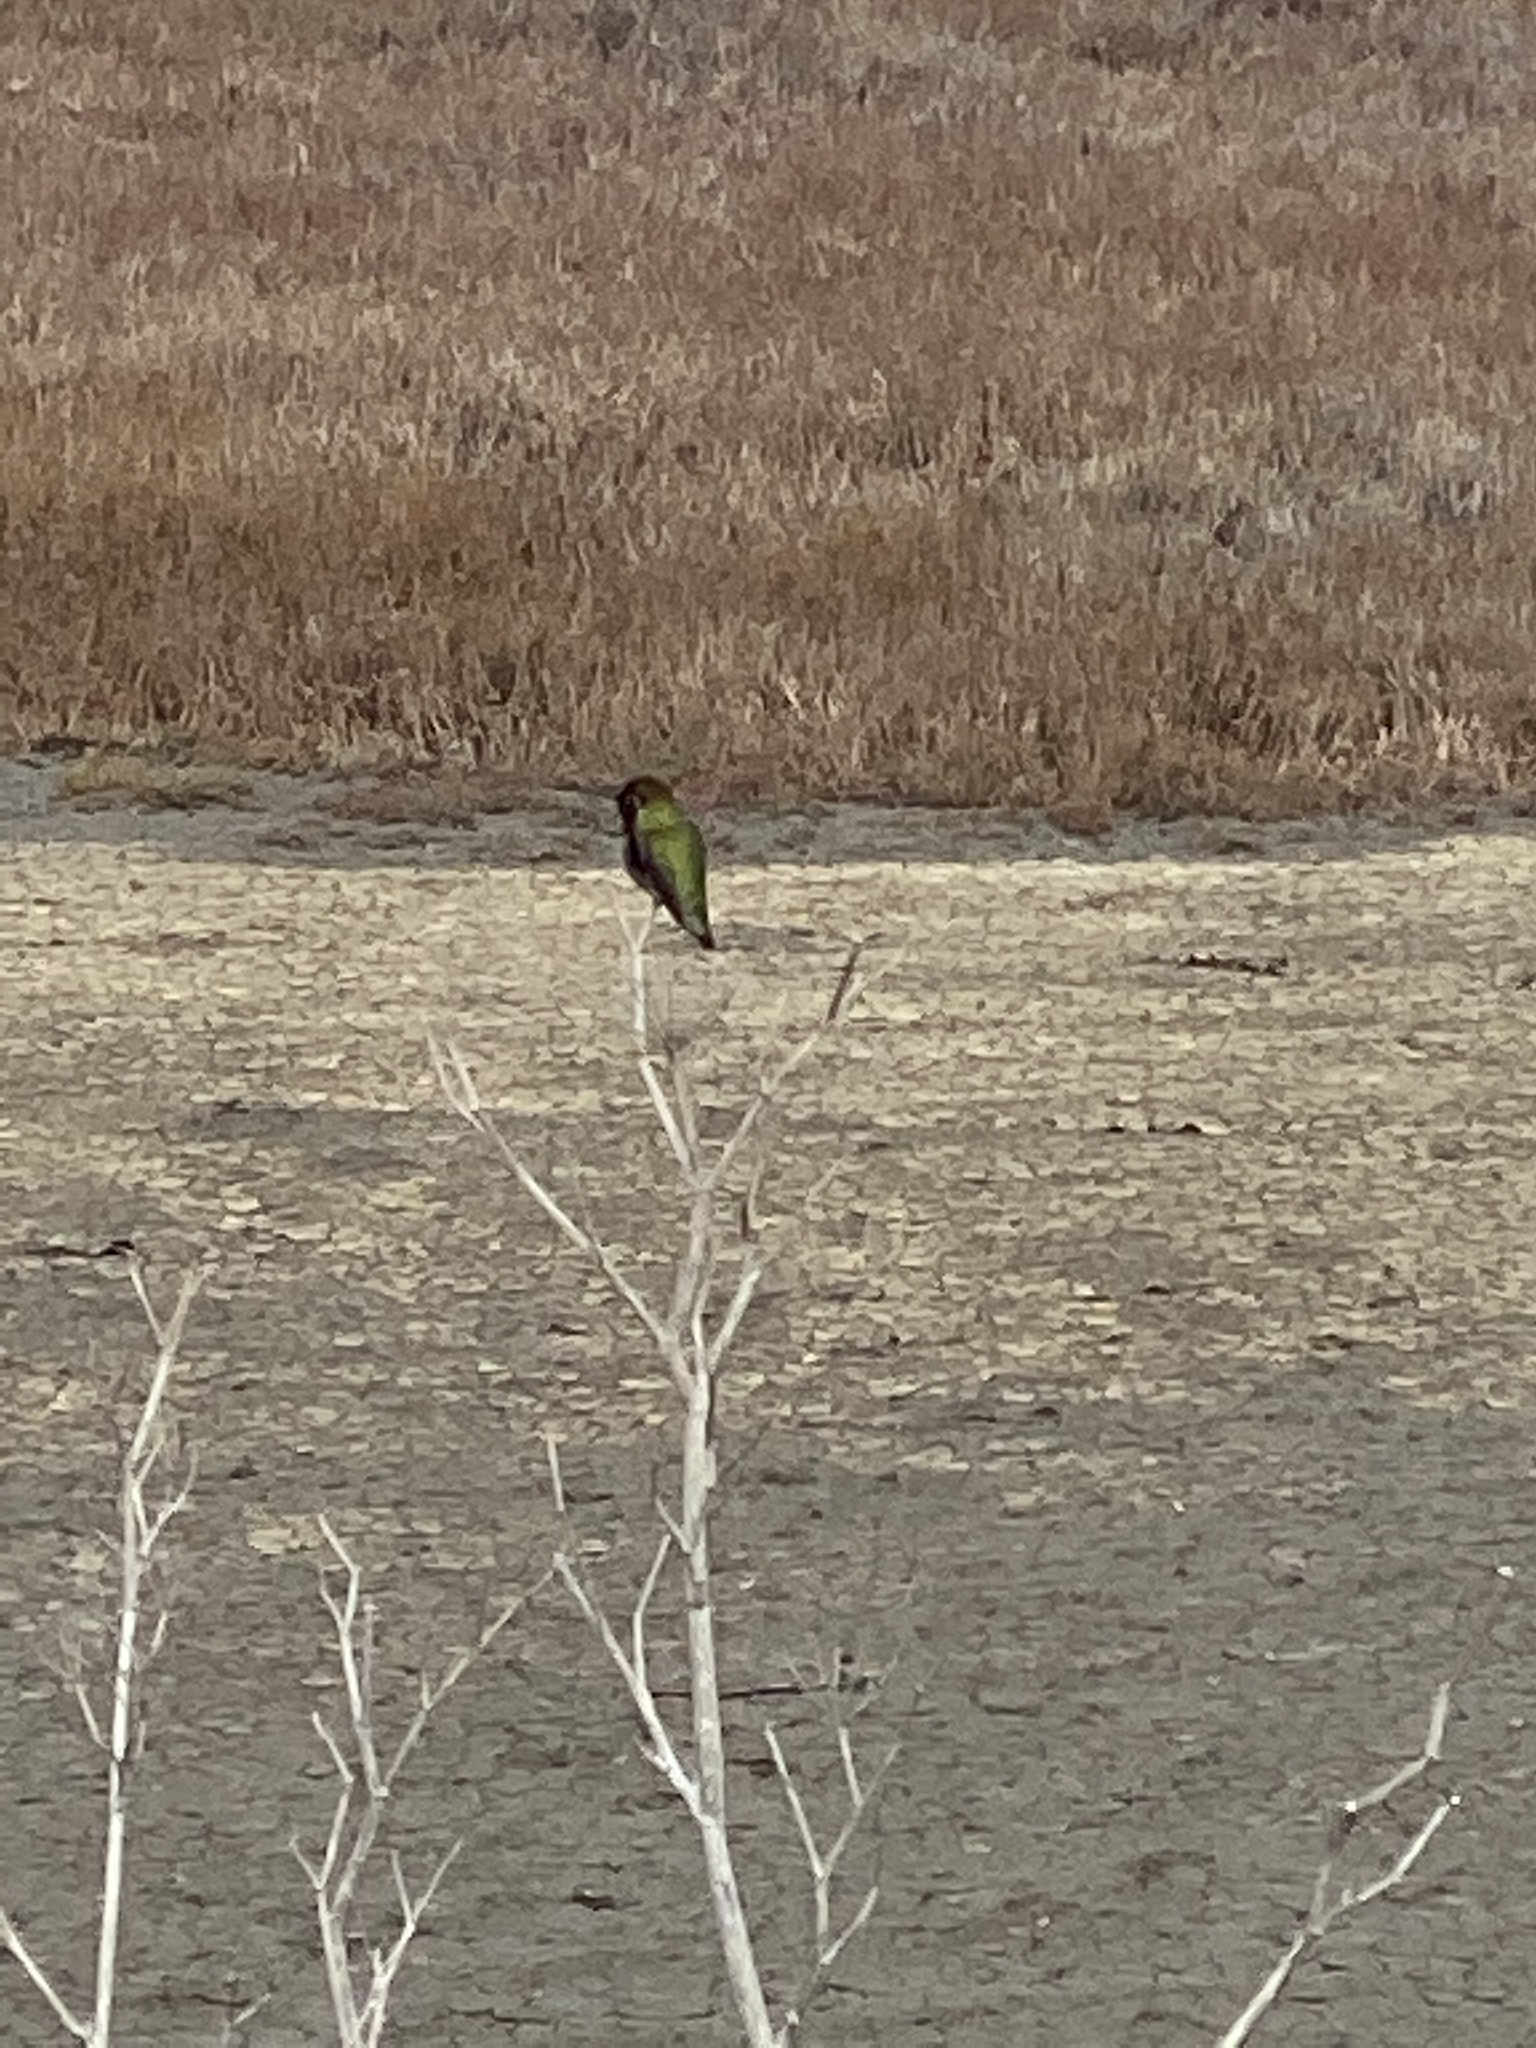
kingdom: Animalia
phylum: Chordata
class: Aves
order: Apodiformes
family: Trochilidae
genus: Calypte
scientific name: Calypte anna
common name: Anna's hummingbird
